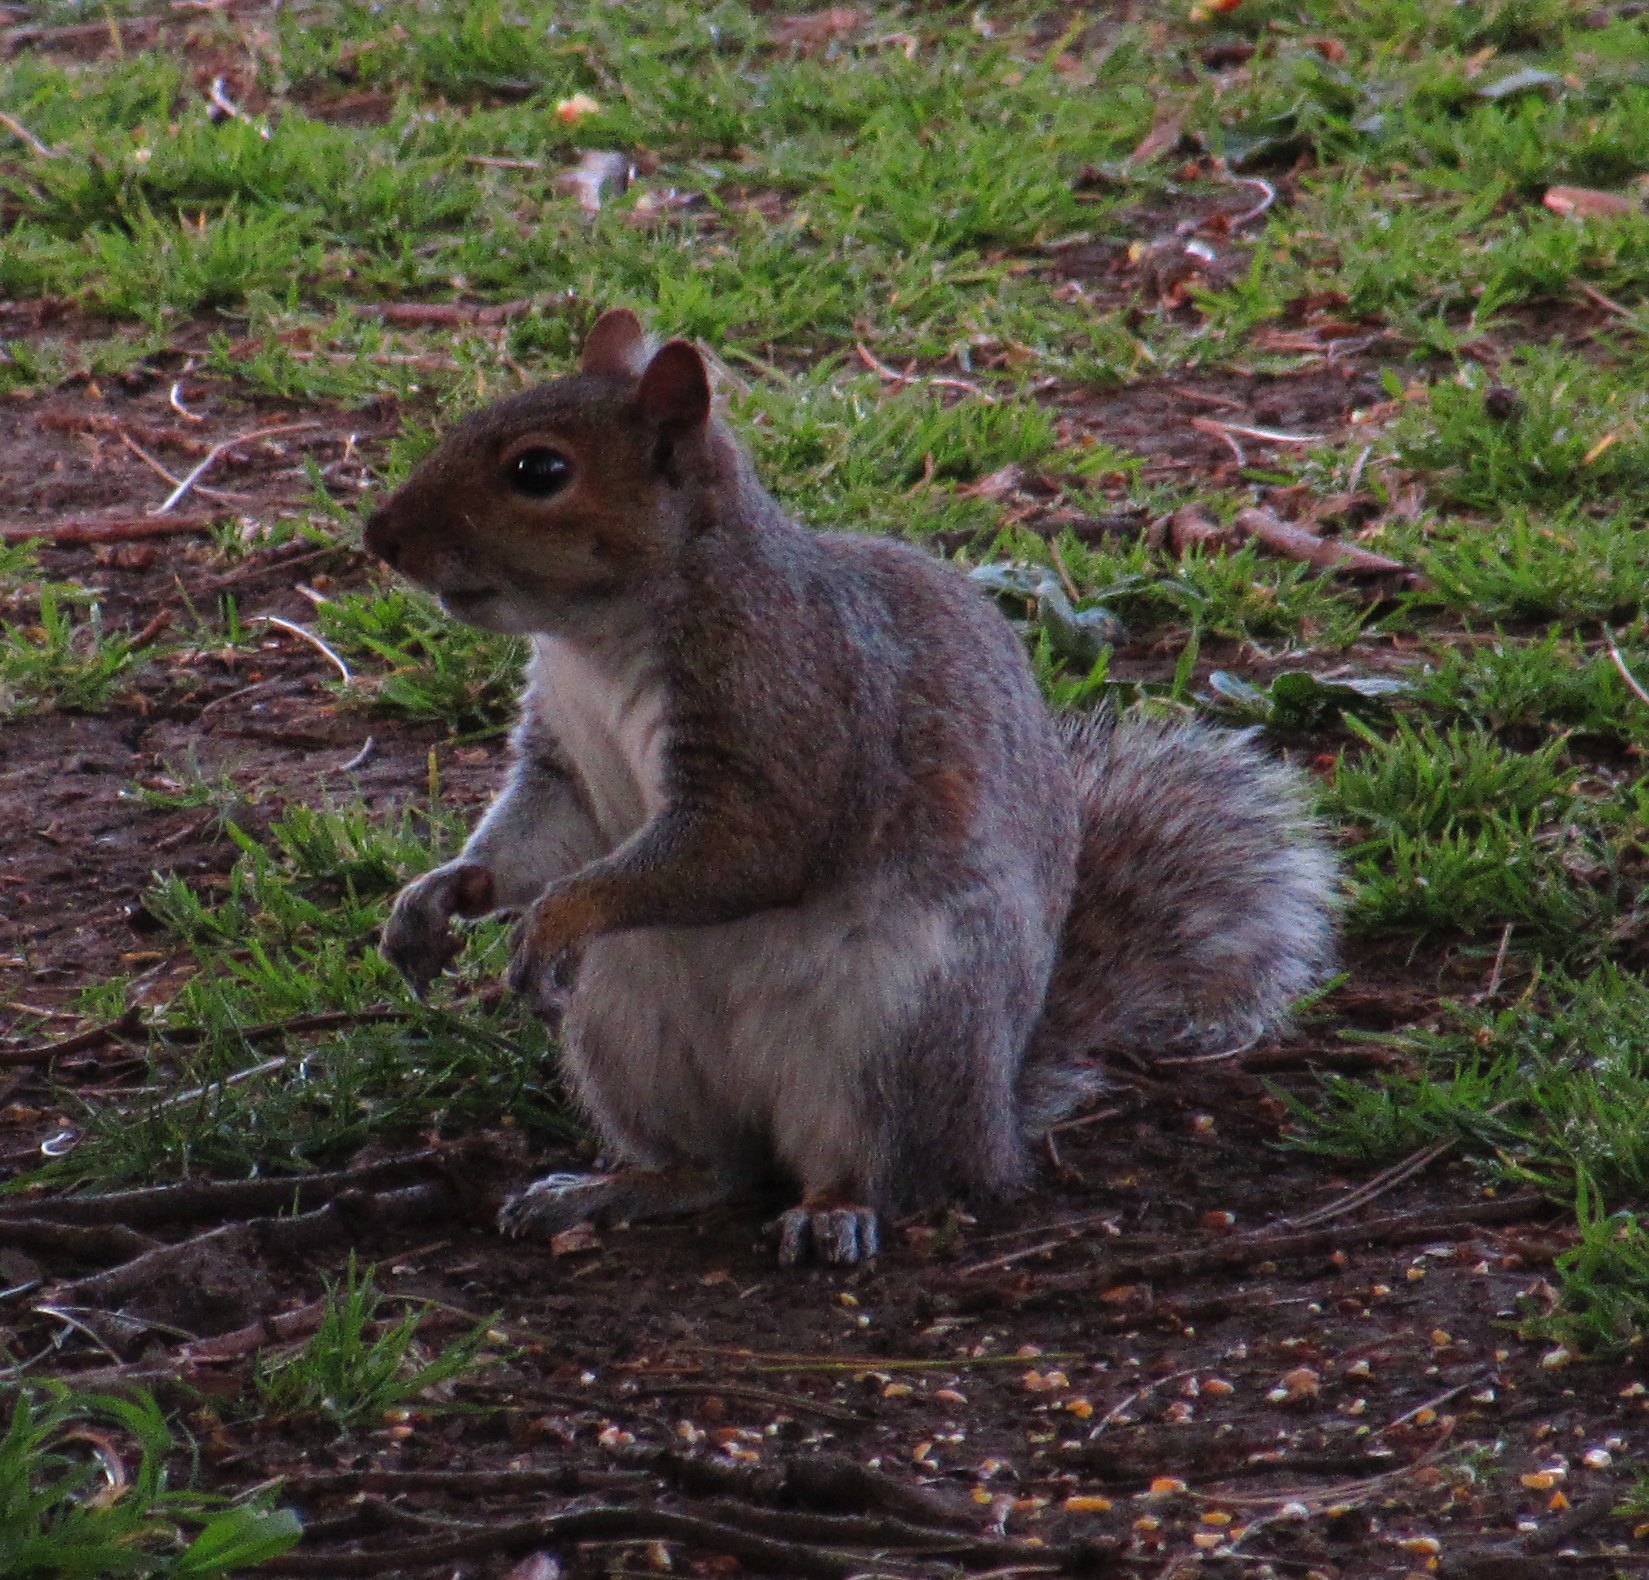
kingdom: Animalia
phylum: Chordata
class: Mammalia
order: Rodentia
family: Sciuridae
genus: Sciurus
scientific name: Sciurus carolinensis
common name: Eastern gray squirrel
